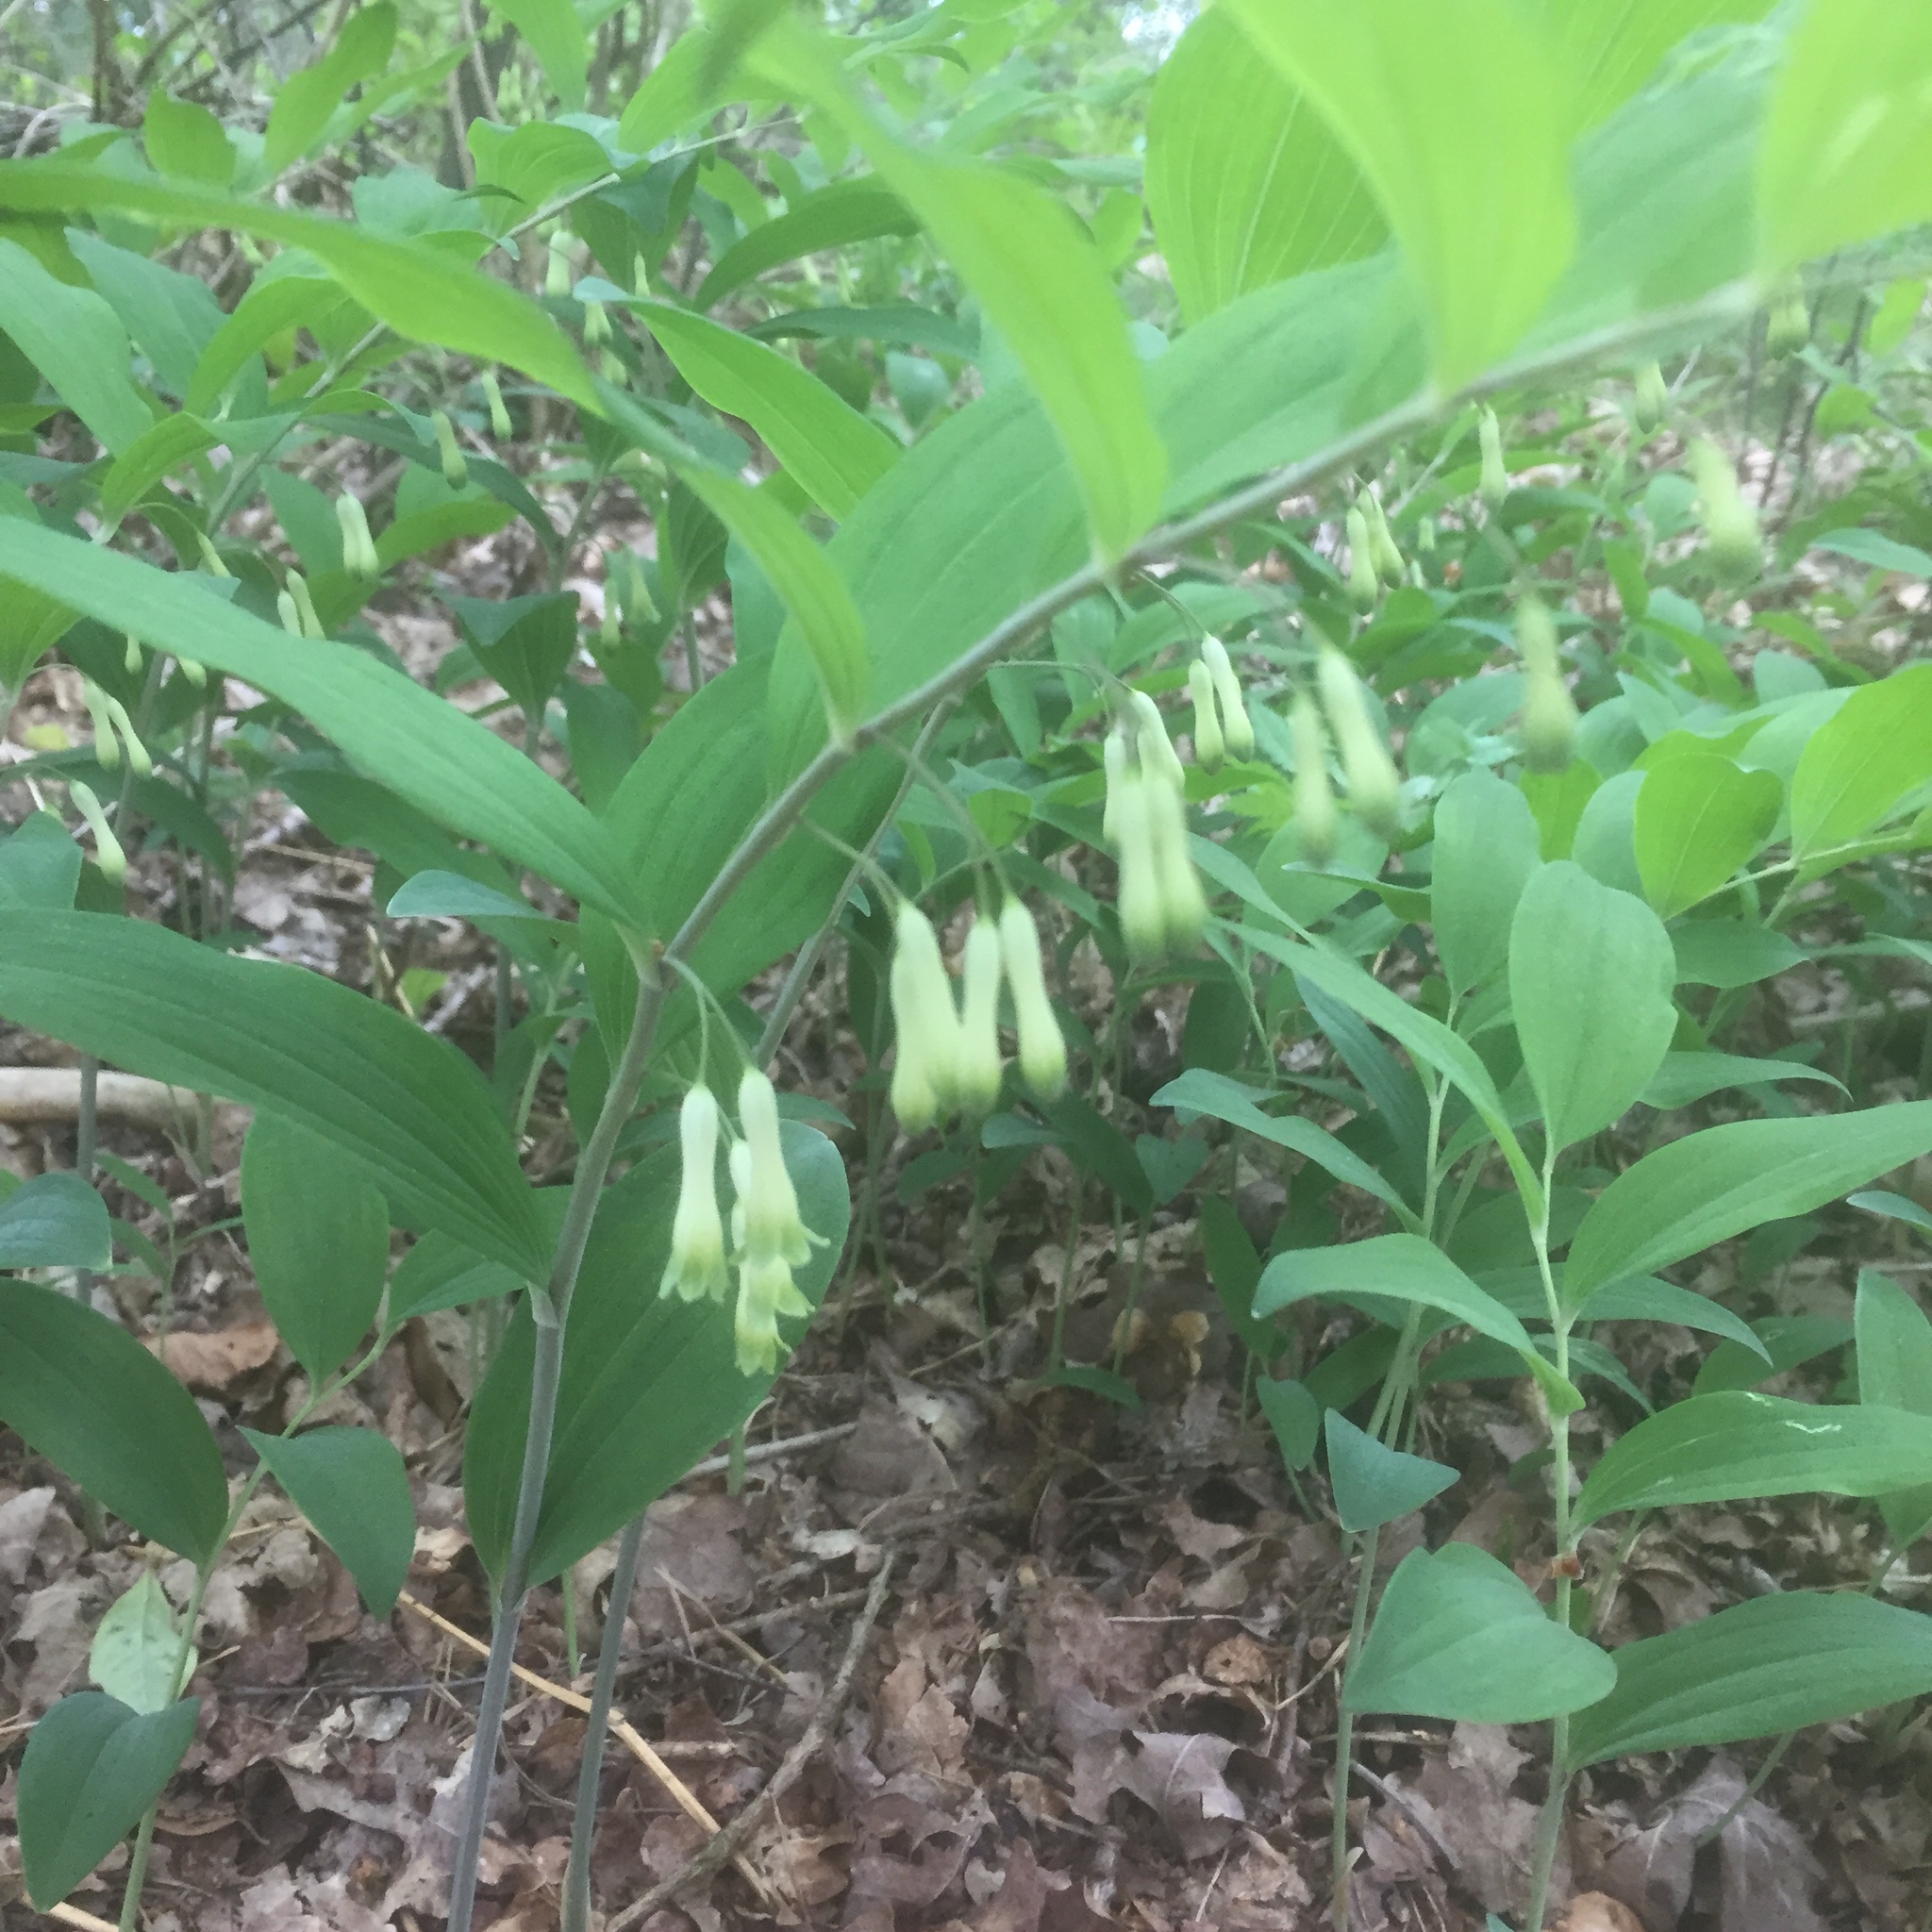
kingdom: Plantae
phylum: Tracheophyta
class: Liliopsida
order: Asparagales
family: Asparagaceae
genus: Polygonatum
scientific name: Polygonatum multiflorum
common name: Solomon's-seal
